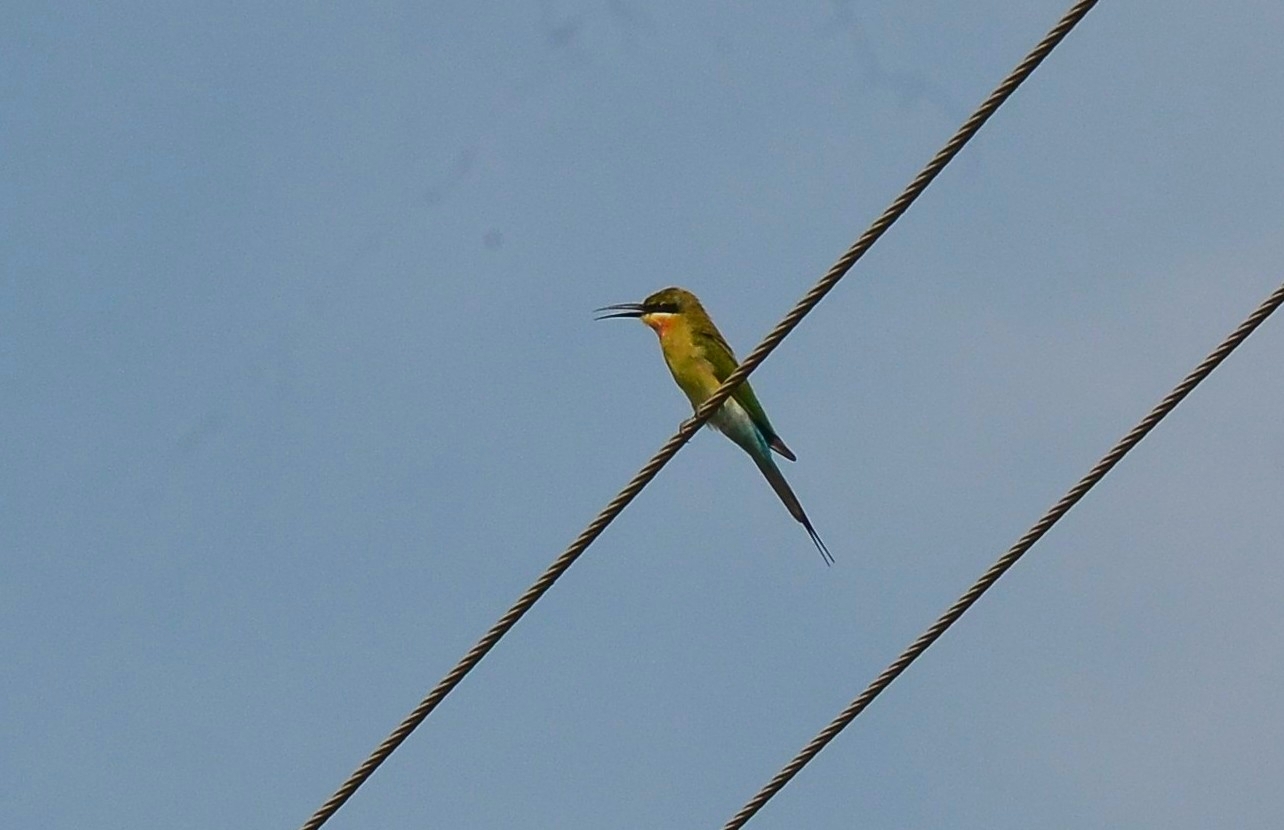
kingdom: Animalia
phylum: Chordata
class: Aves
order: Coraciiformes
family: Meropidae
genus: Merops
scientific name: Merops philippinus
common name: Blue-tailed bee-eater
